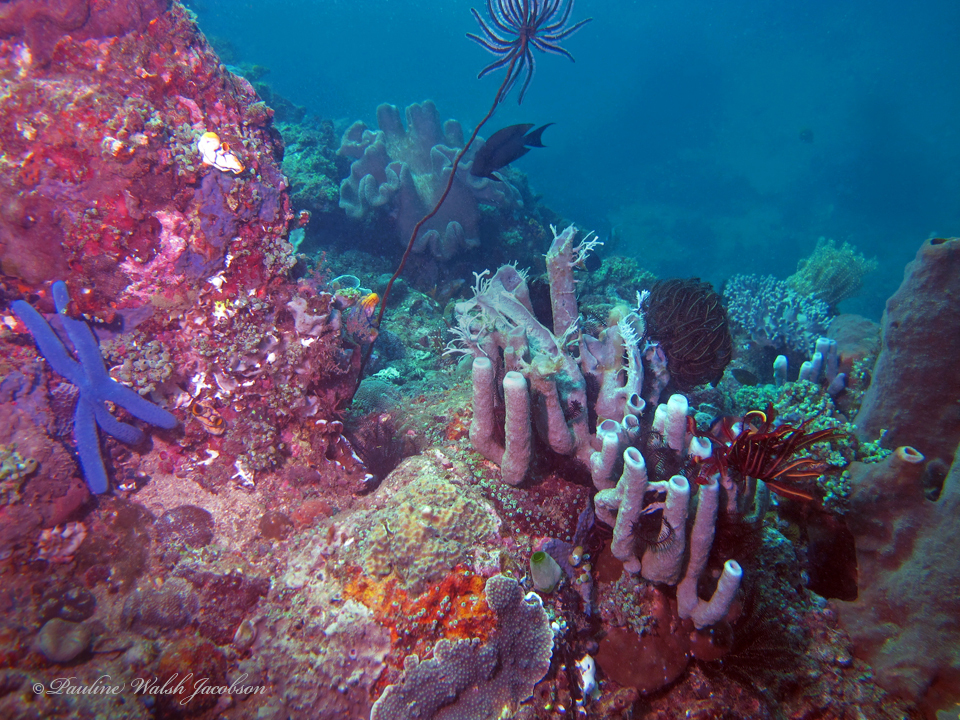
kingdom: Animalia
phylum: Echinodermata
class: Asteroidea
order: Valvatida
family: Ophidiasteridae
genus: Linckia
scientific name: Linckia laevigata
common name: Azure sea star
